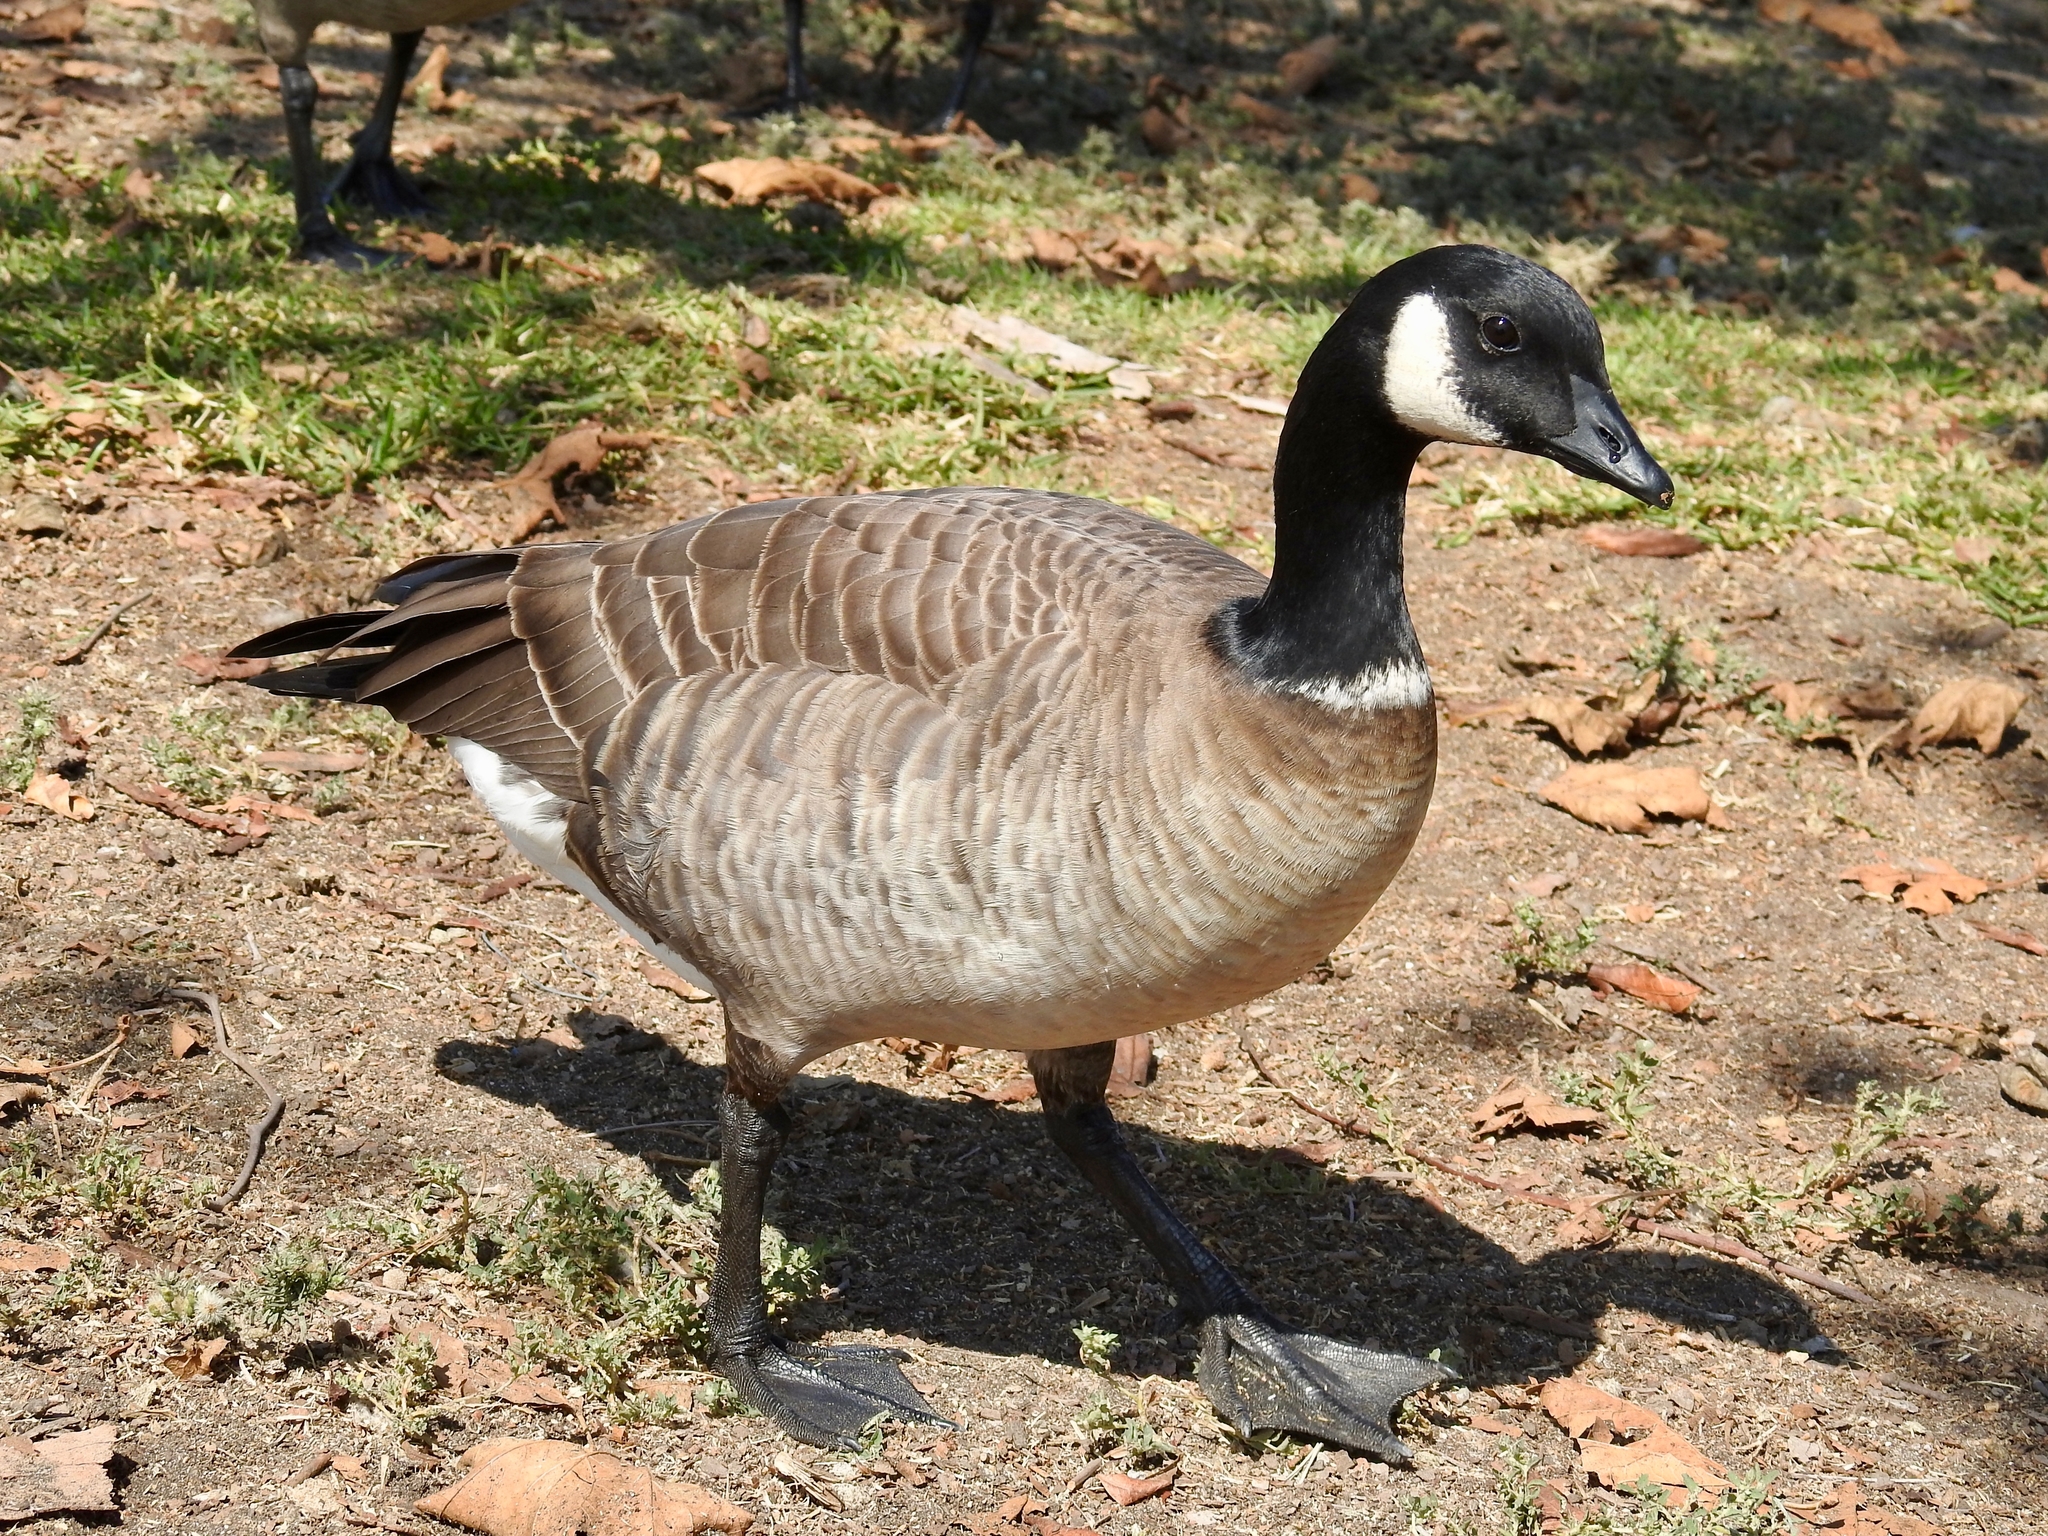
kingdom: Animalia
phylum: Chordata
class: Aves
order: Anseriformes
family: Anatidae
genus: Branta
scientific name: Branta hutchinsii
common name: Cackling goose
